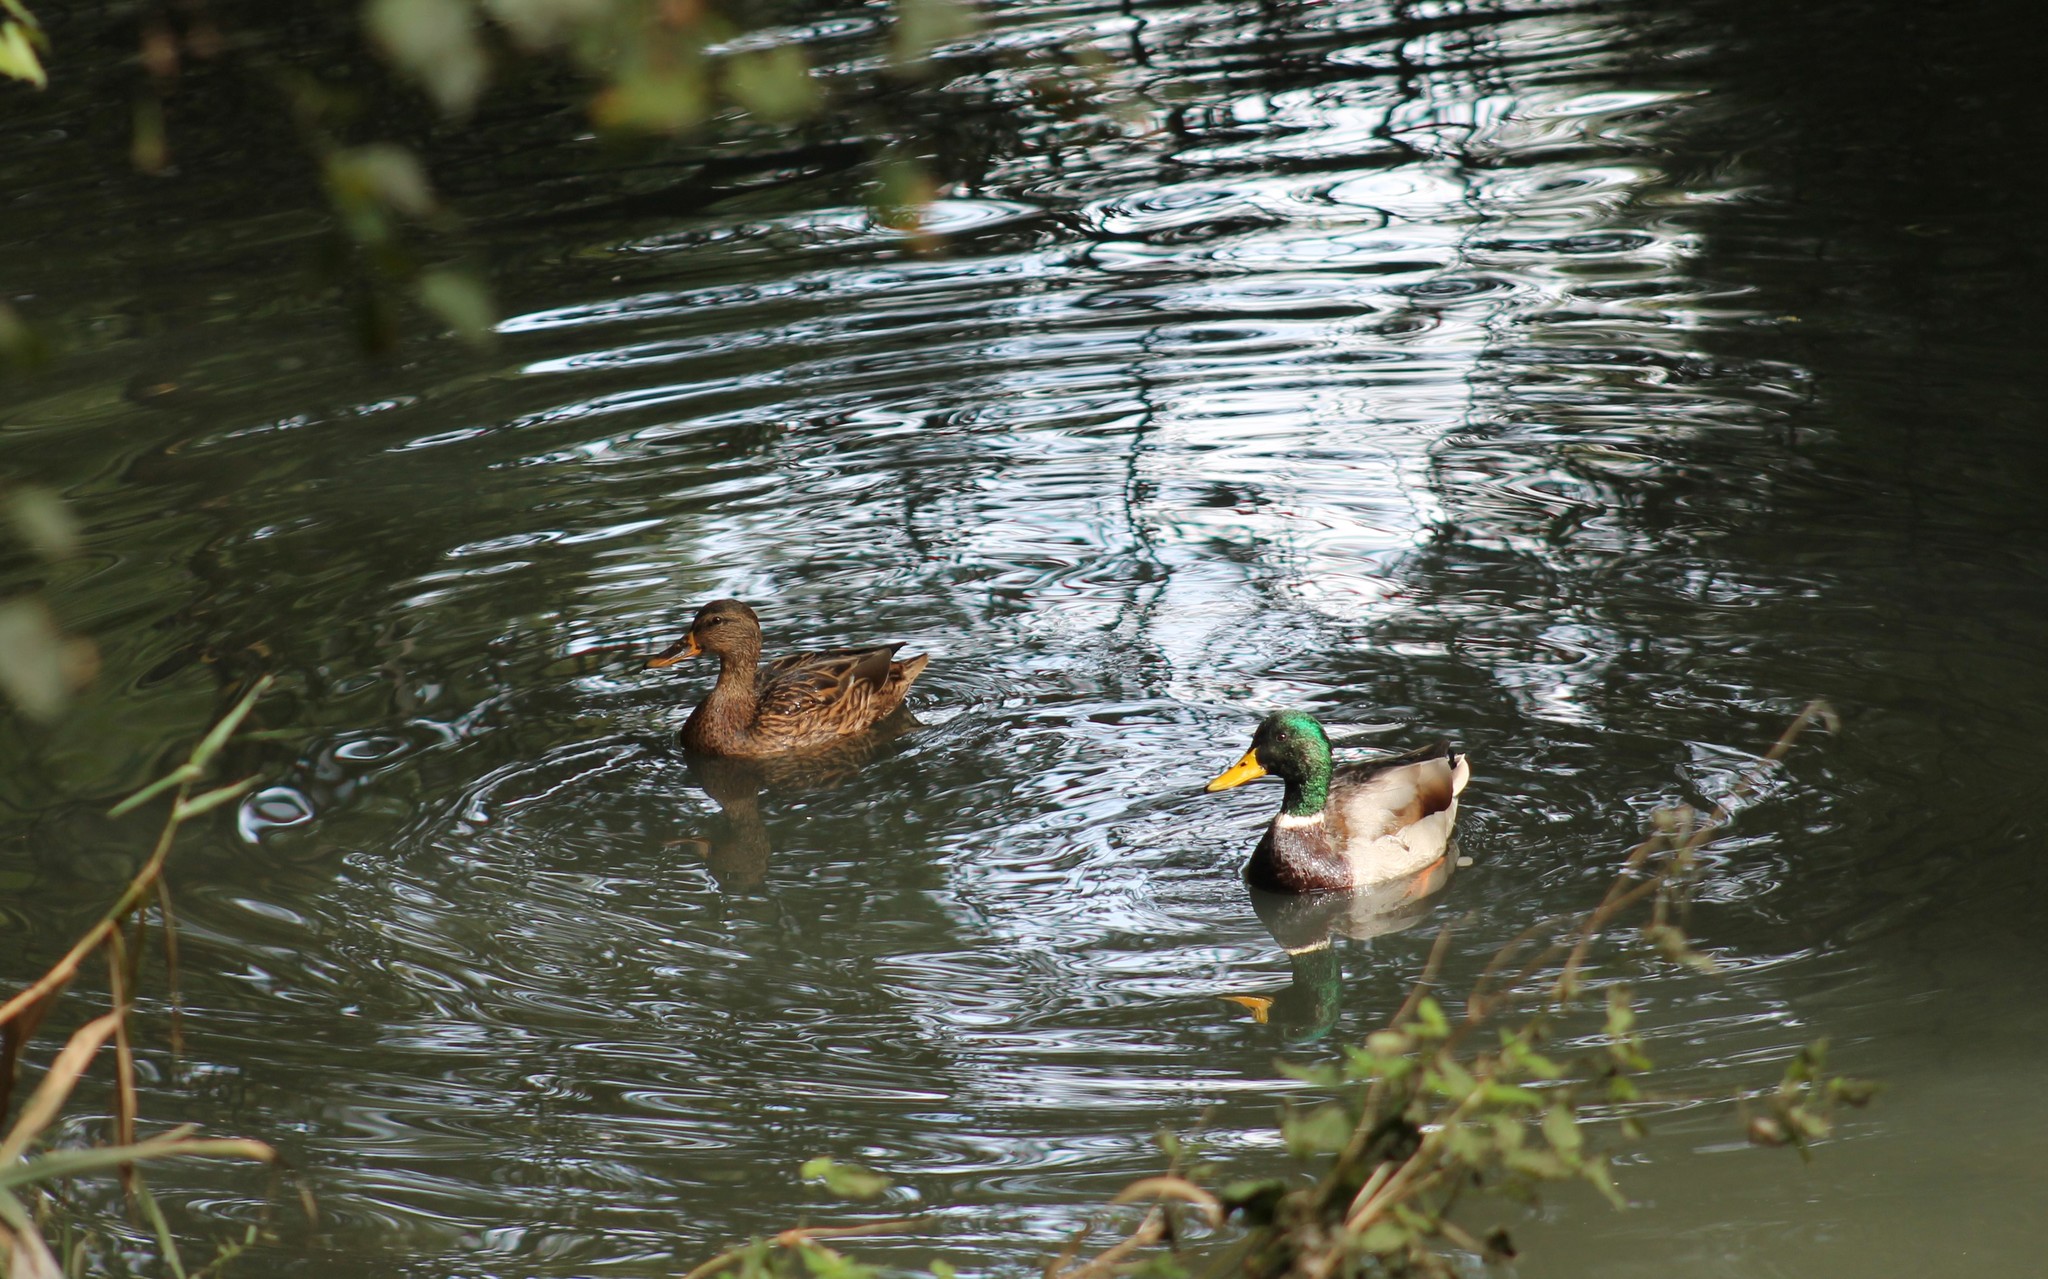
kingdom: Animalia
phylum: Chordata
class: Aves
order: Anseriformes
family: Anatidae
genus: Anas
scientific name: Anas platyrhynchos
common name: Mallard
